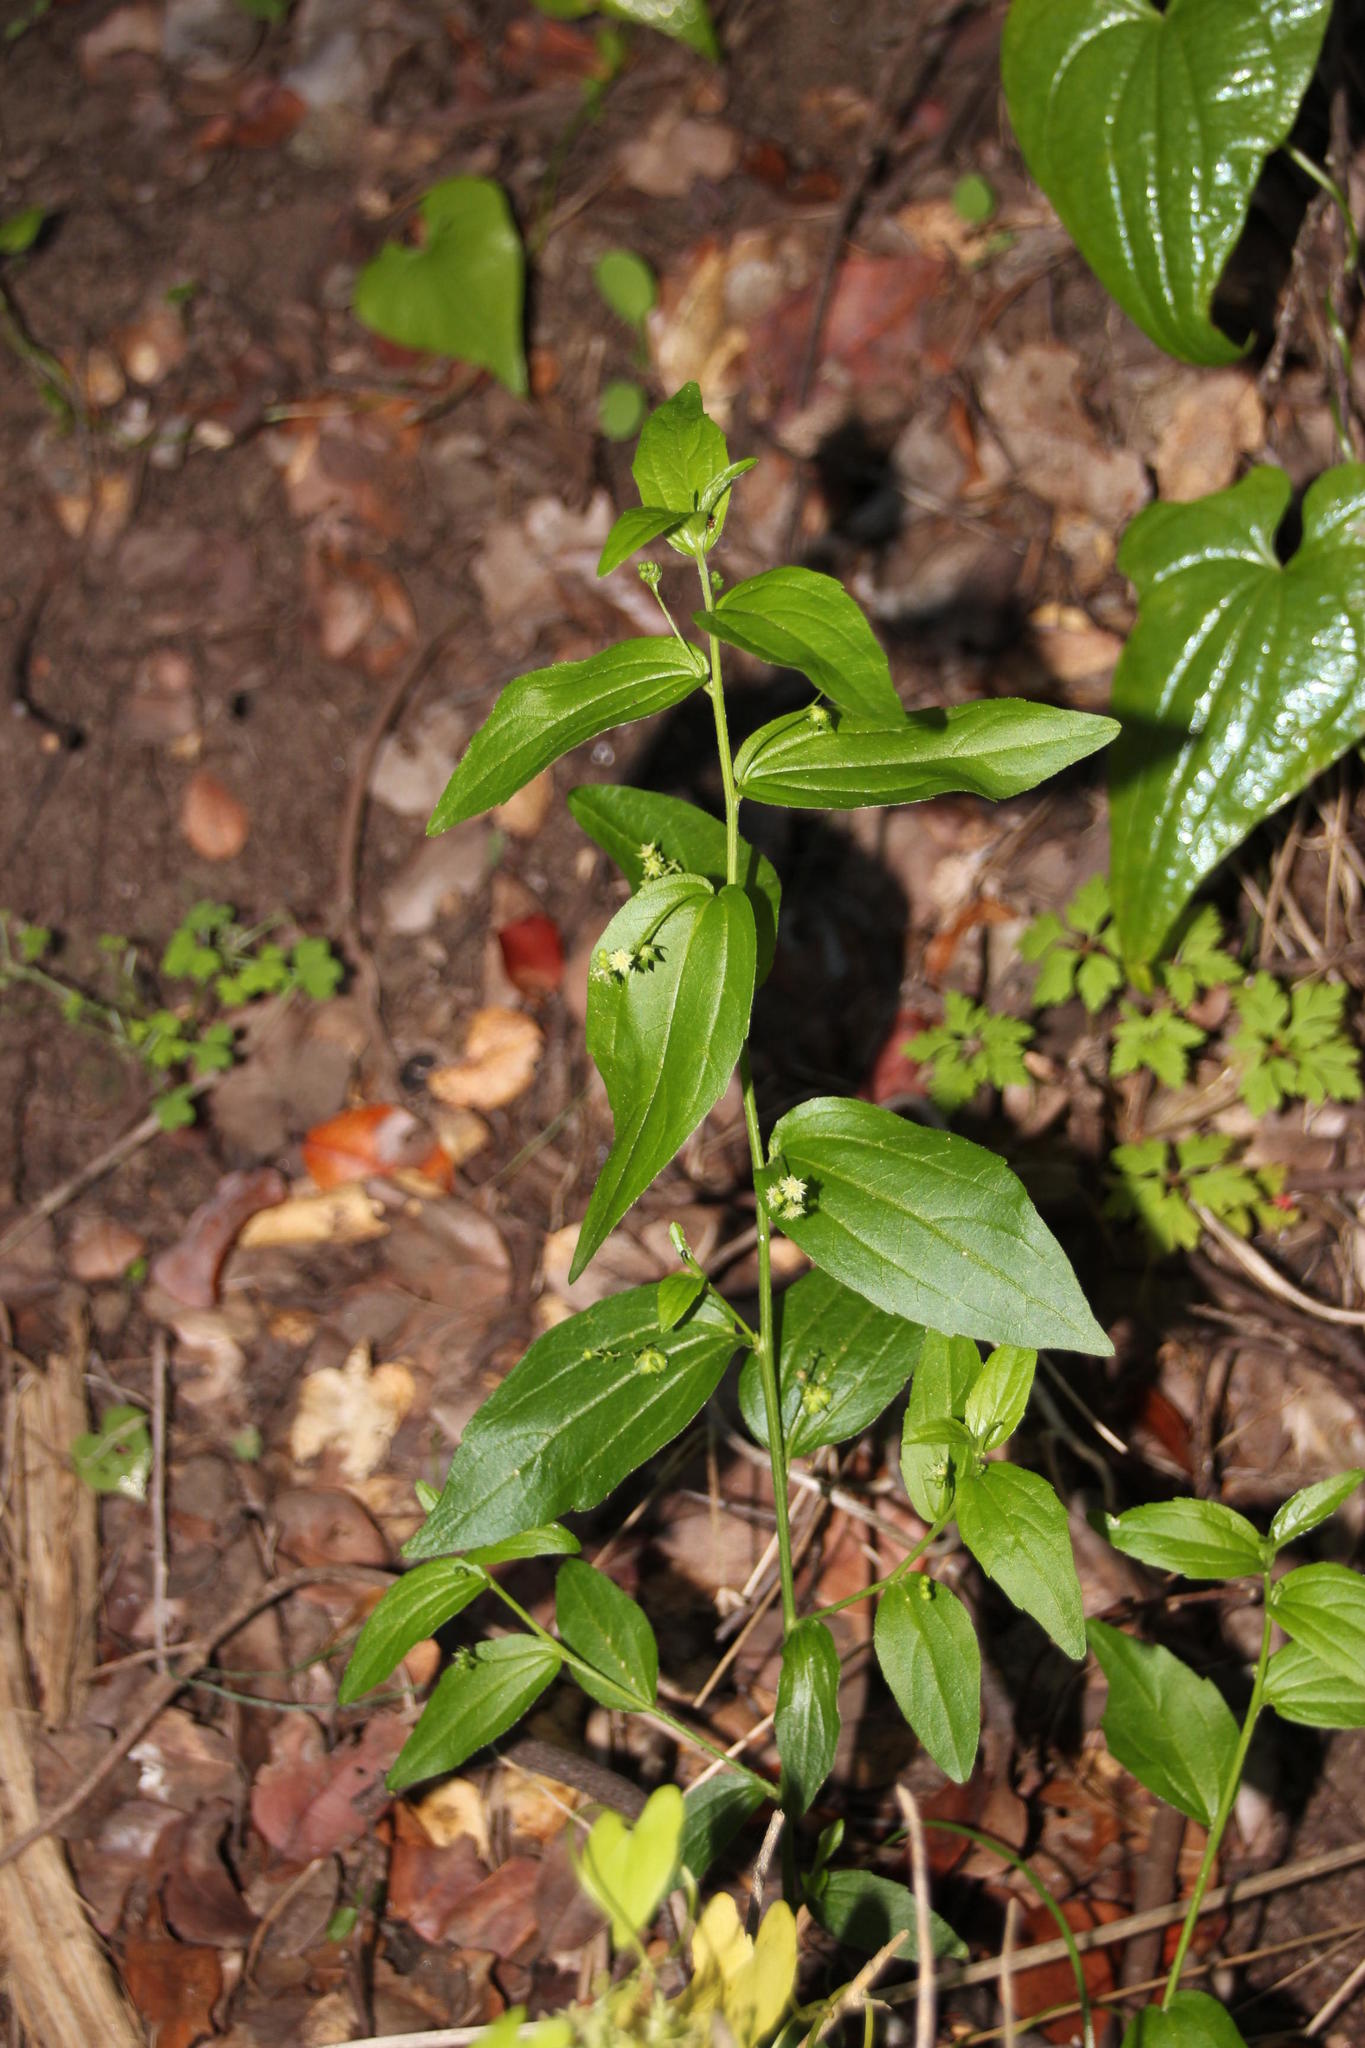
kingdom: Plantae
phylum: Tracheophyta
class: Magnoliopsida
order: Malpighiales
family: Euphorbiaceae
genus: Chiropetalum
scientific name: Chiropetalum tricuspidatum
